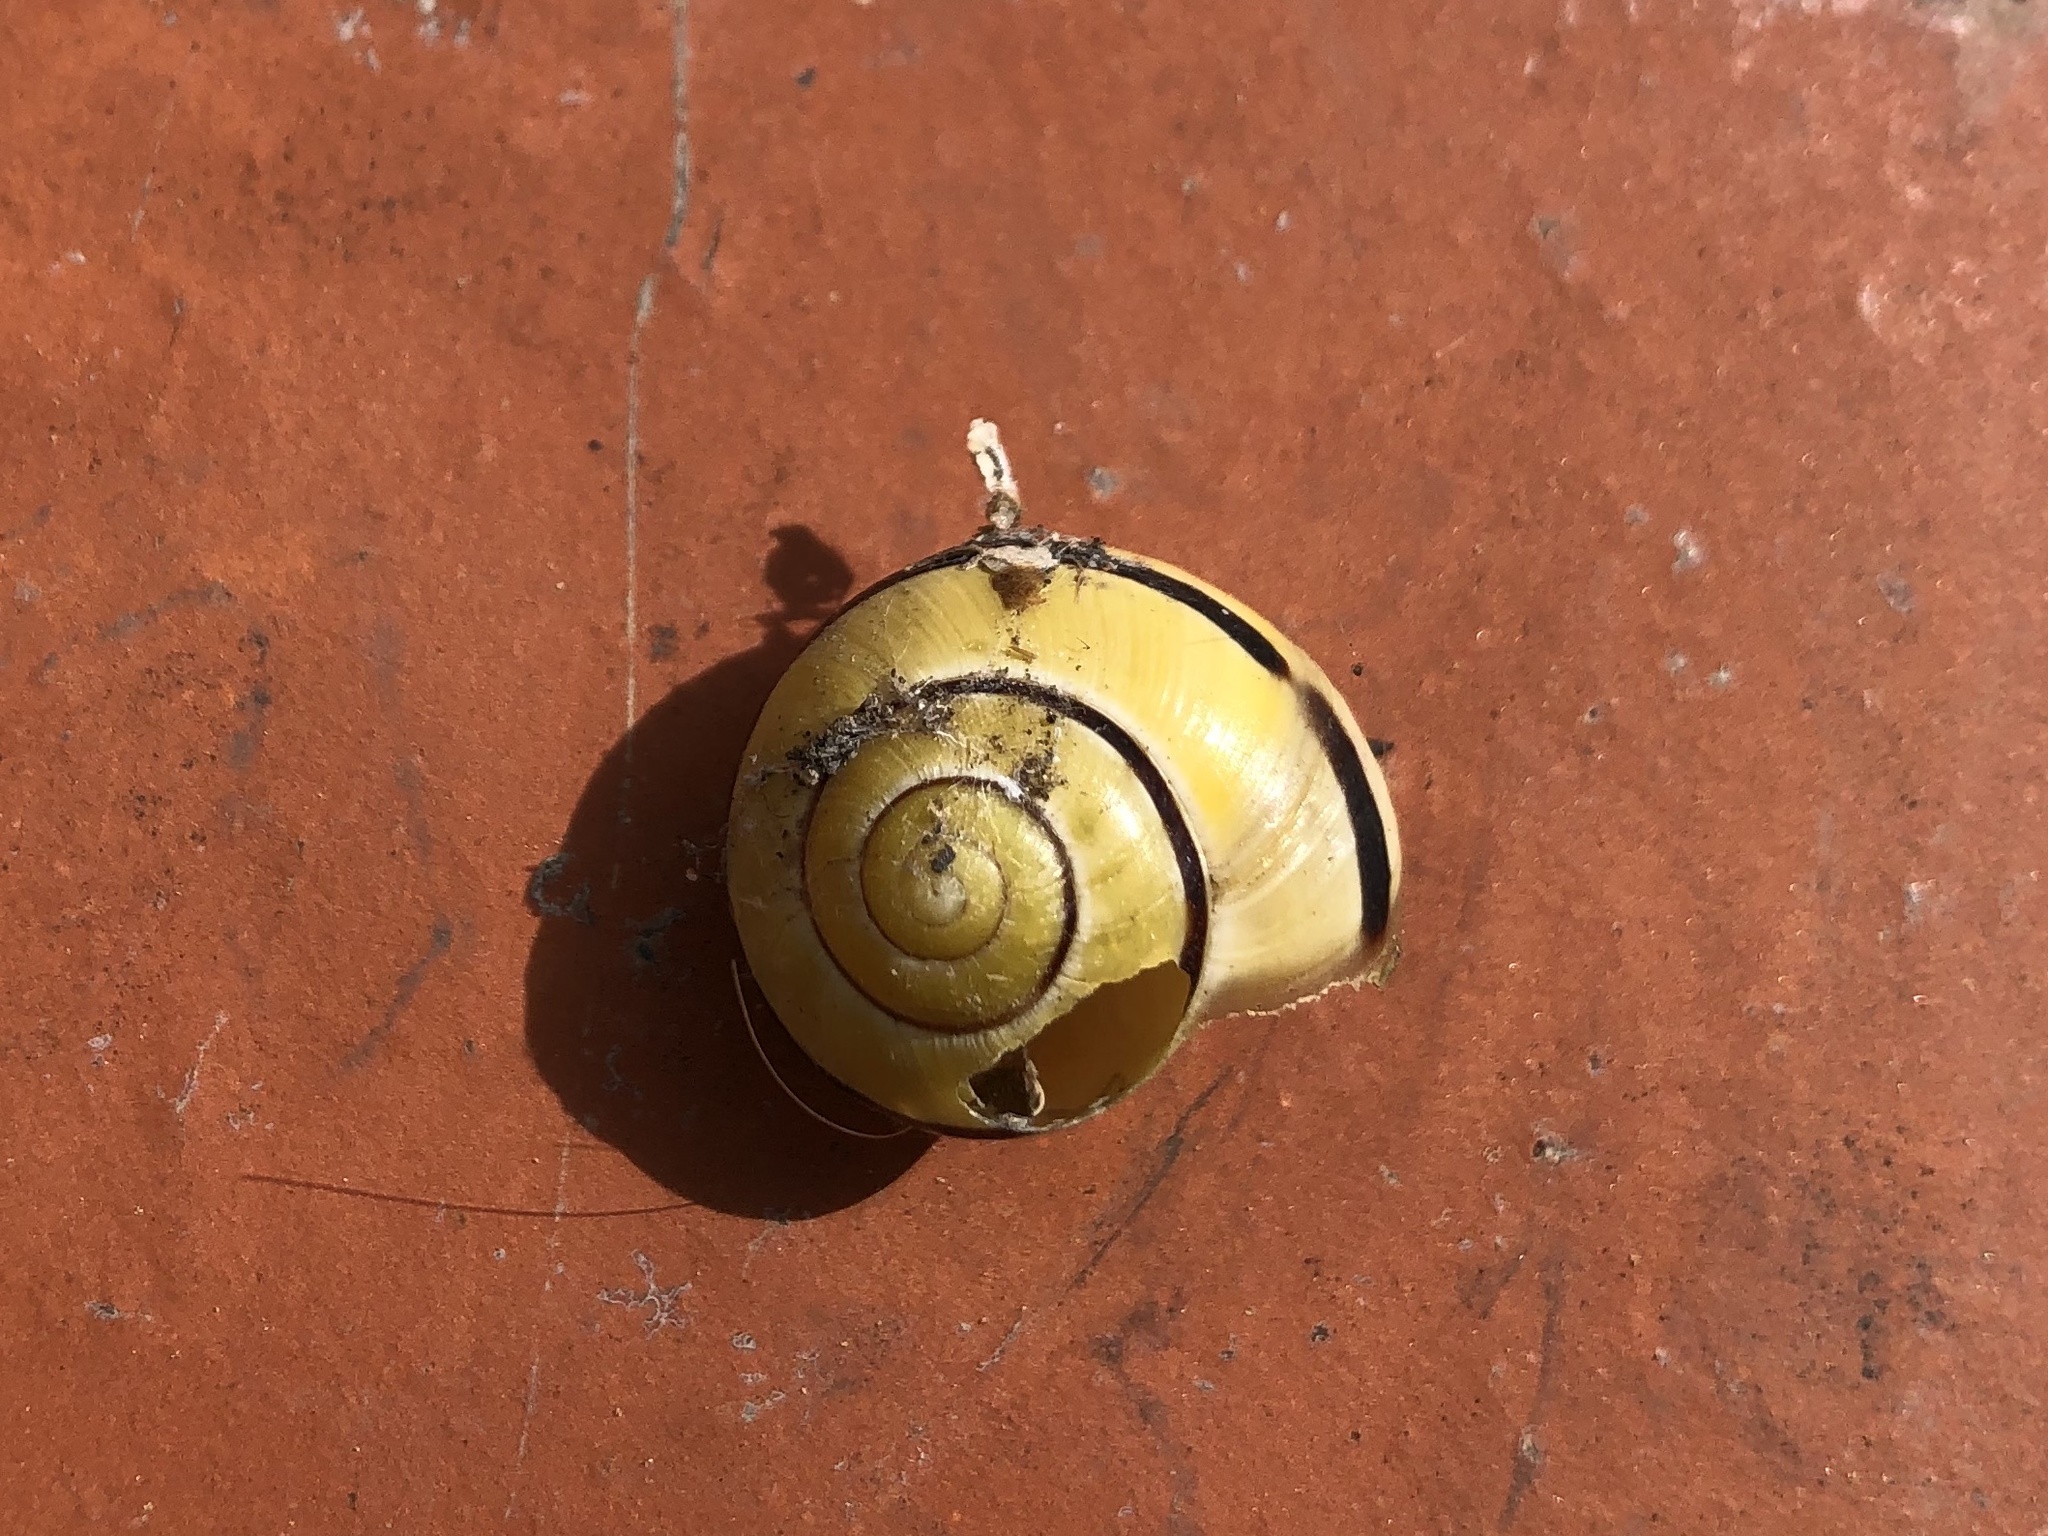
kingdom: Animalia
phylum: Mollusca
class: Gastropoda
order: Stylommatophora
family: Helicidae
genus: Cepaea
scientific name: Cepaea nemoralis
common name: Grovesnail
